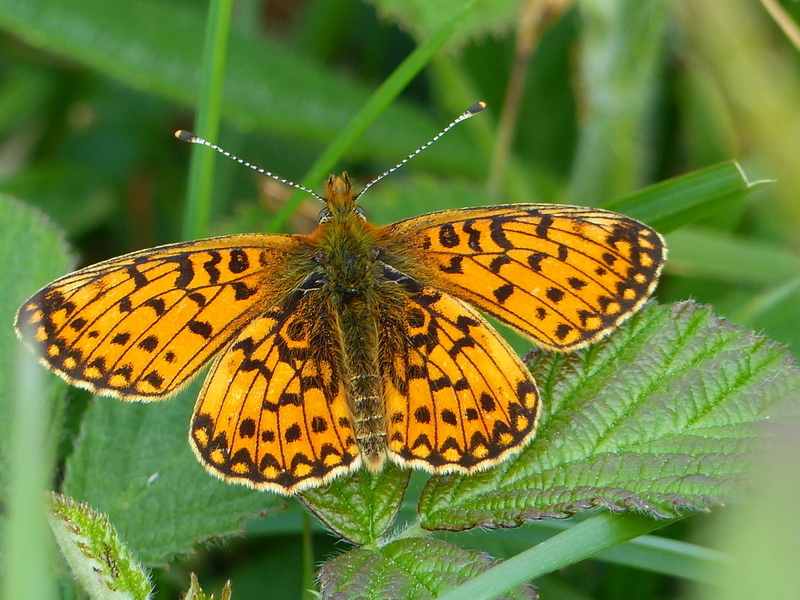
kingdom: Animalia
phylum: Arthropoda
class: Insecta
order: Lepidoptera
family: Nymphalidae
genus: Boloria
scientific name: Boloria selene
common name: Small pearl-bordered fritillary
